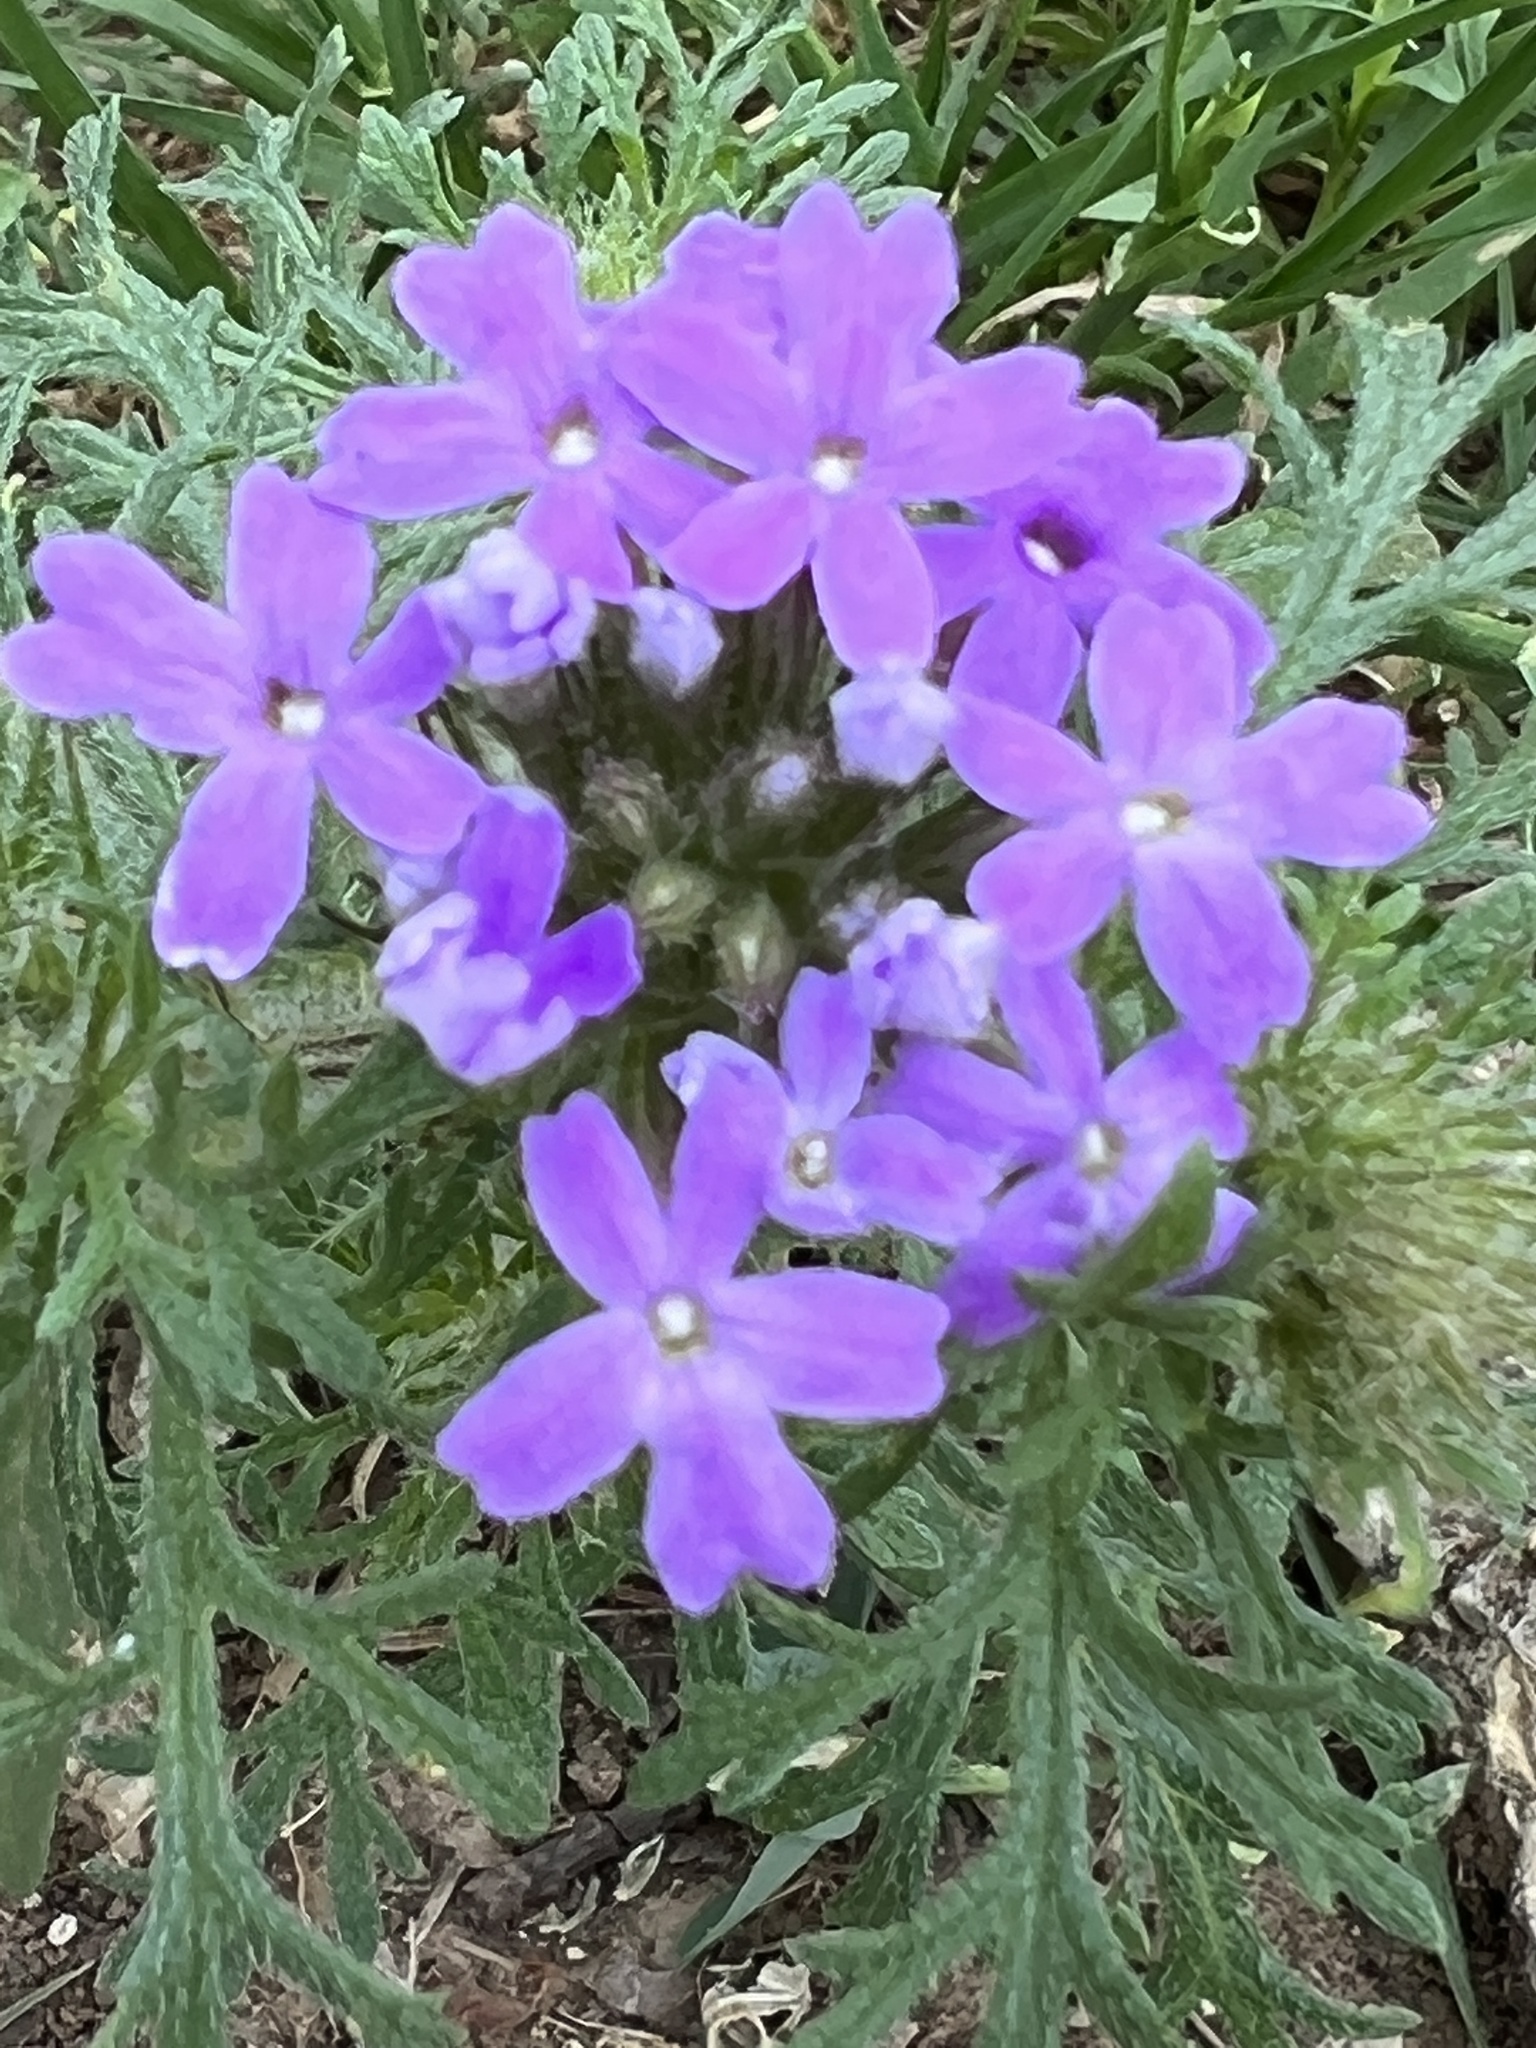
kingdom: Plantae
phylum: Tracheophyta
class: Magnoliopsida
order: Lamiales
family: Verbenaceae
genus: Verbena
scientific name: Verbena bipinnatifida
